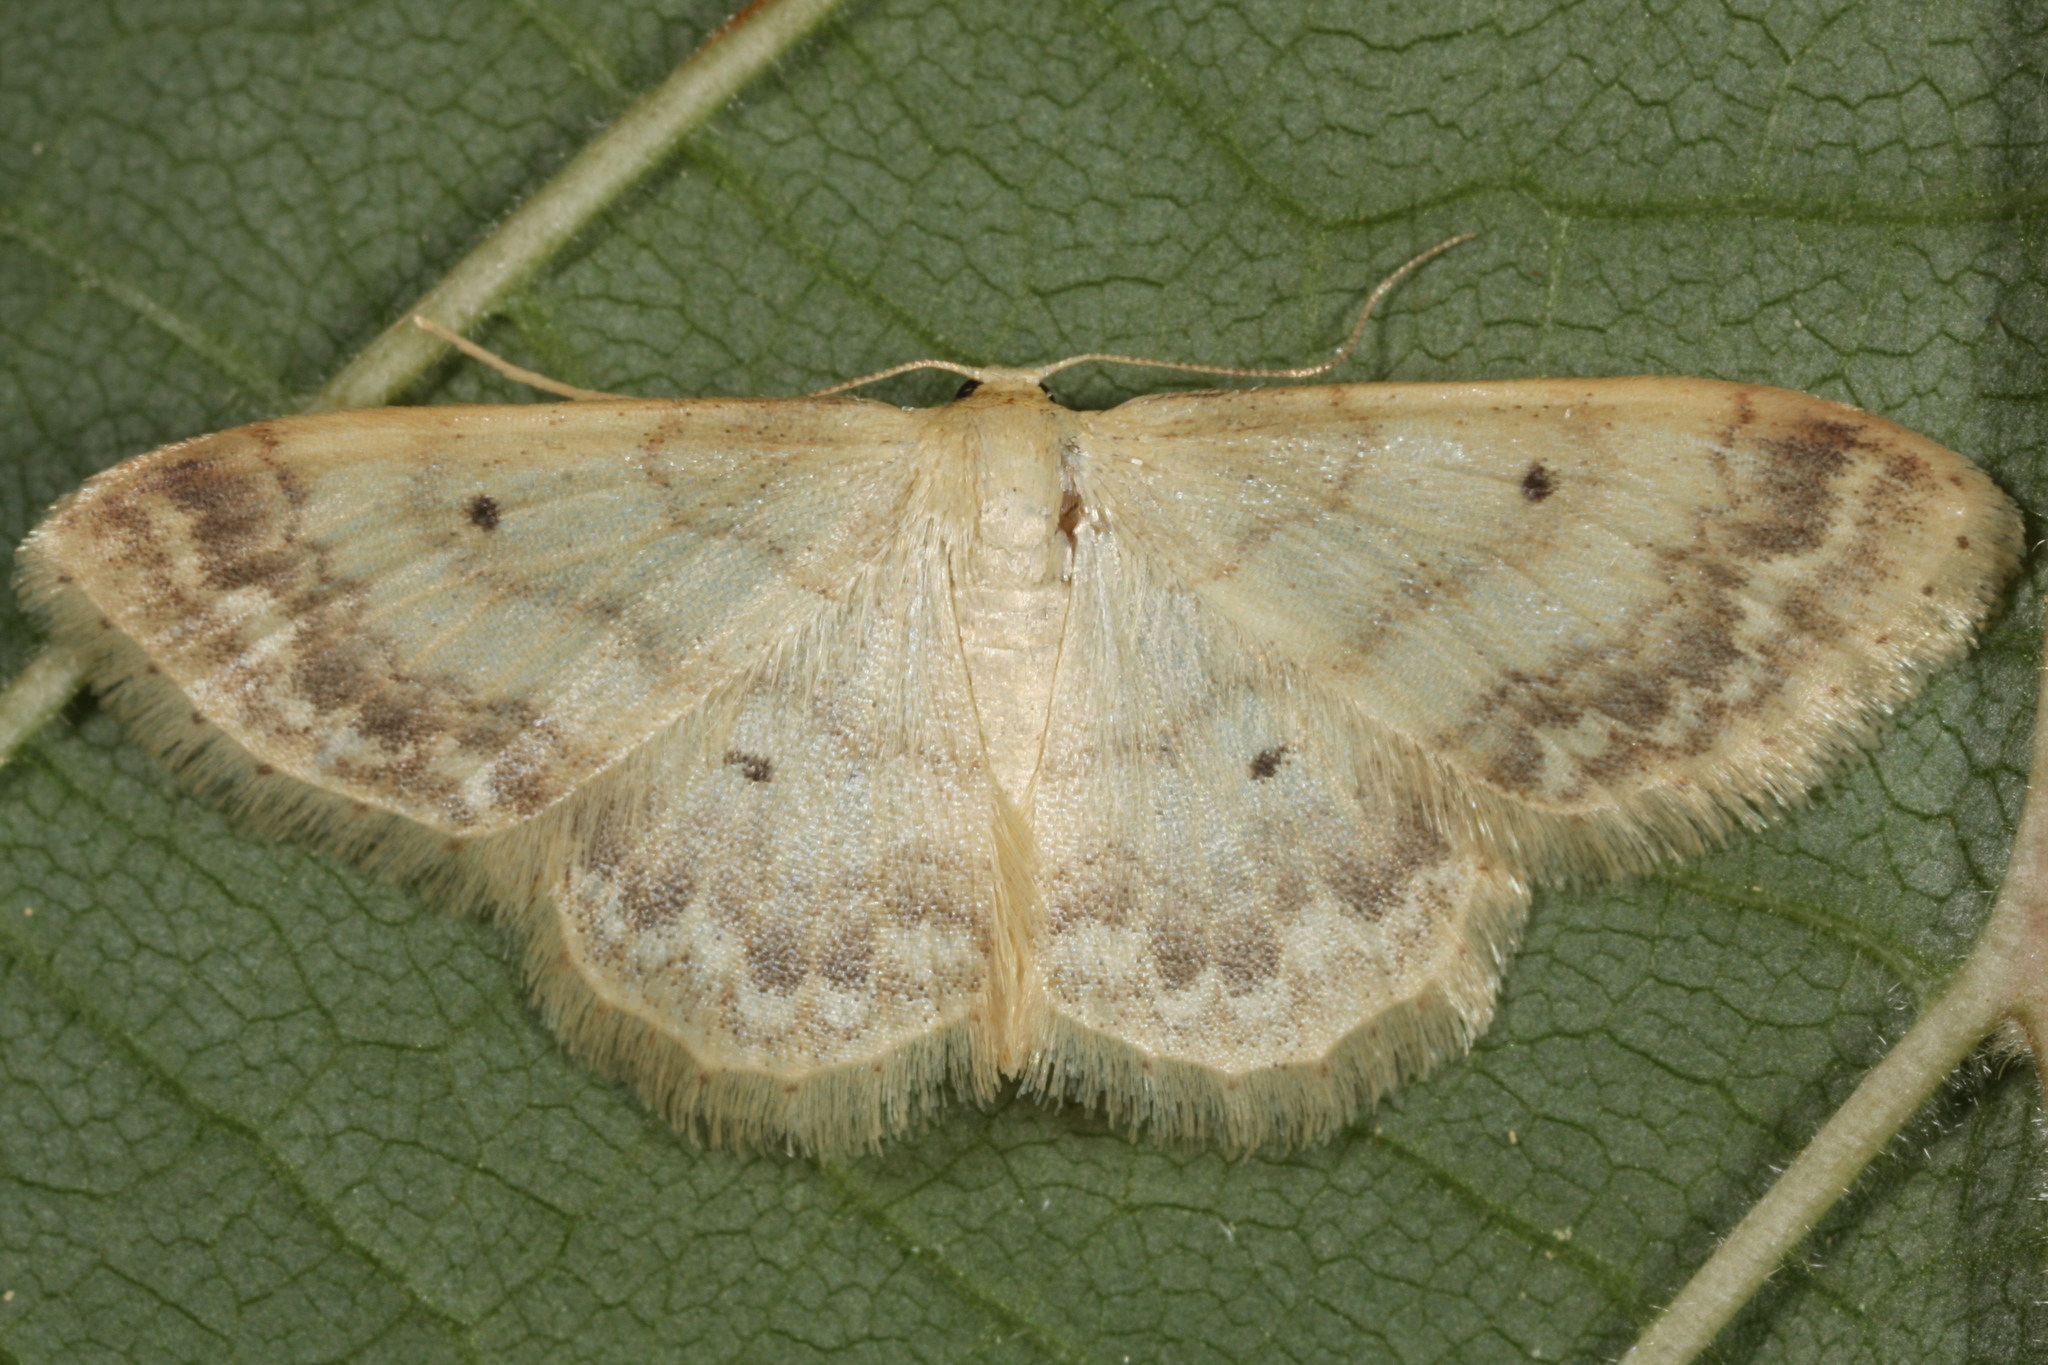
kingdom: Animalia
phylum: Arthropoda
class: Insecta
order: Lepidoptera
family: Geometridae
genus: Idaea
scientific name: Idaea biselata
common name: Small fan-footed wave
